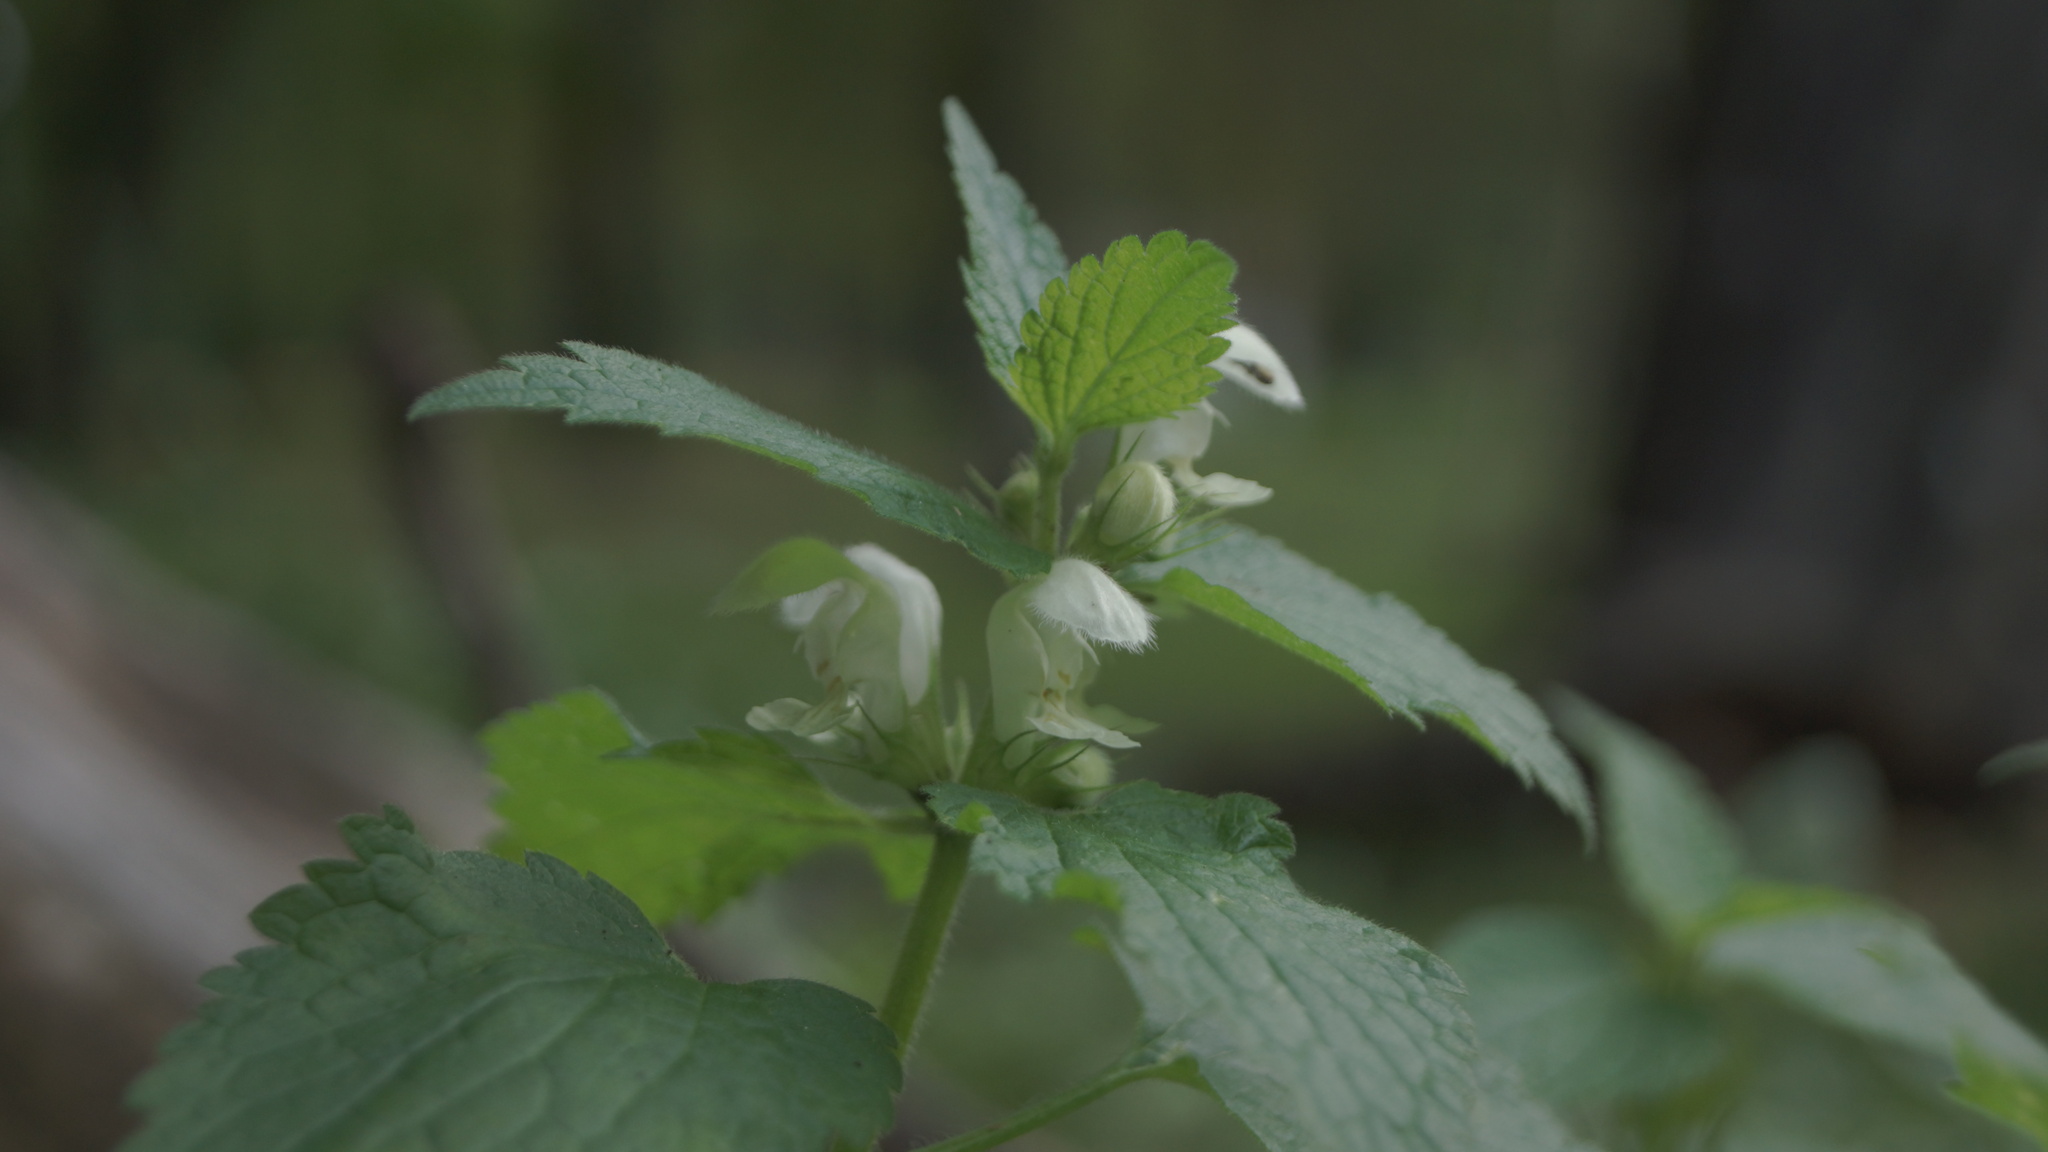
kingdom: Plantae
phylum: Tracheophyta
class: Magnoliopsida
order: Lamiales
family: Lamiaceae
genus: Lamium
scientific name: Lamium album
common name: White dead-nettle
